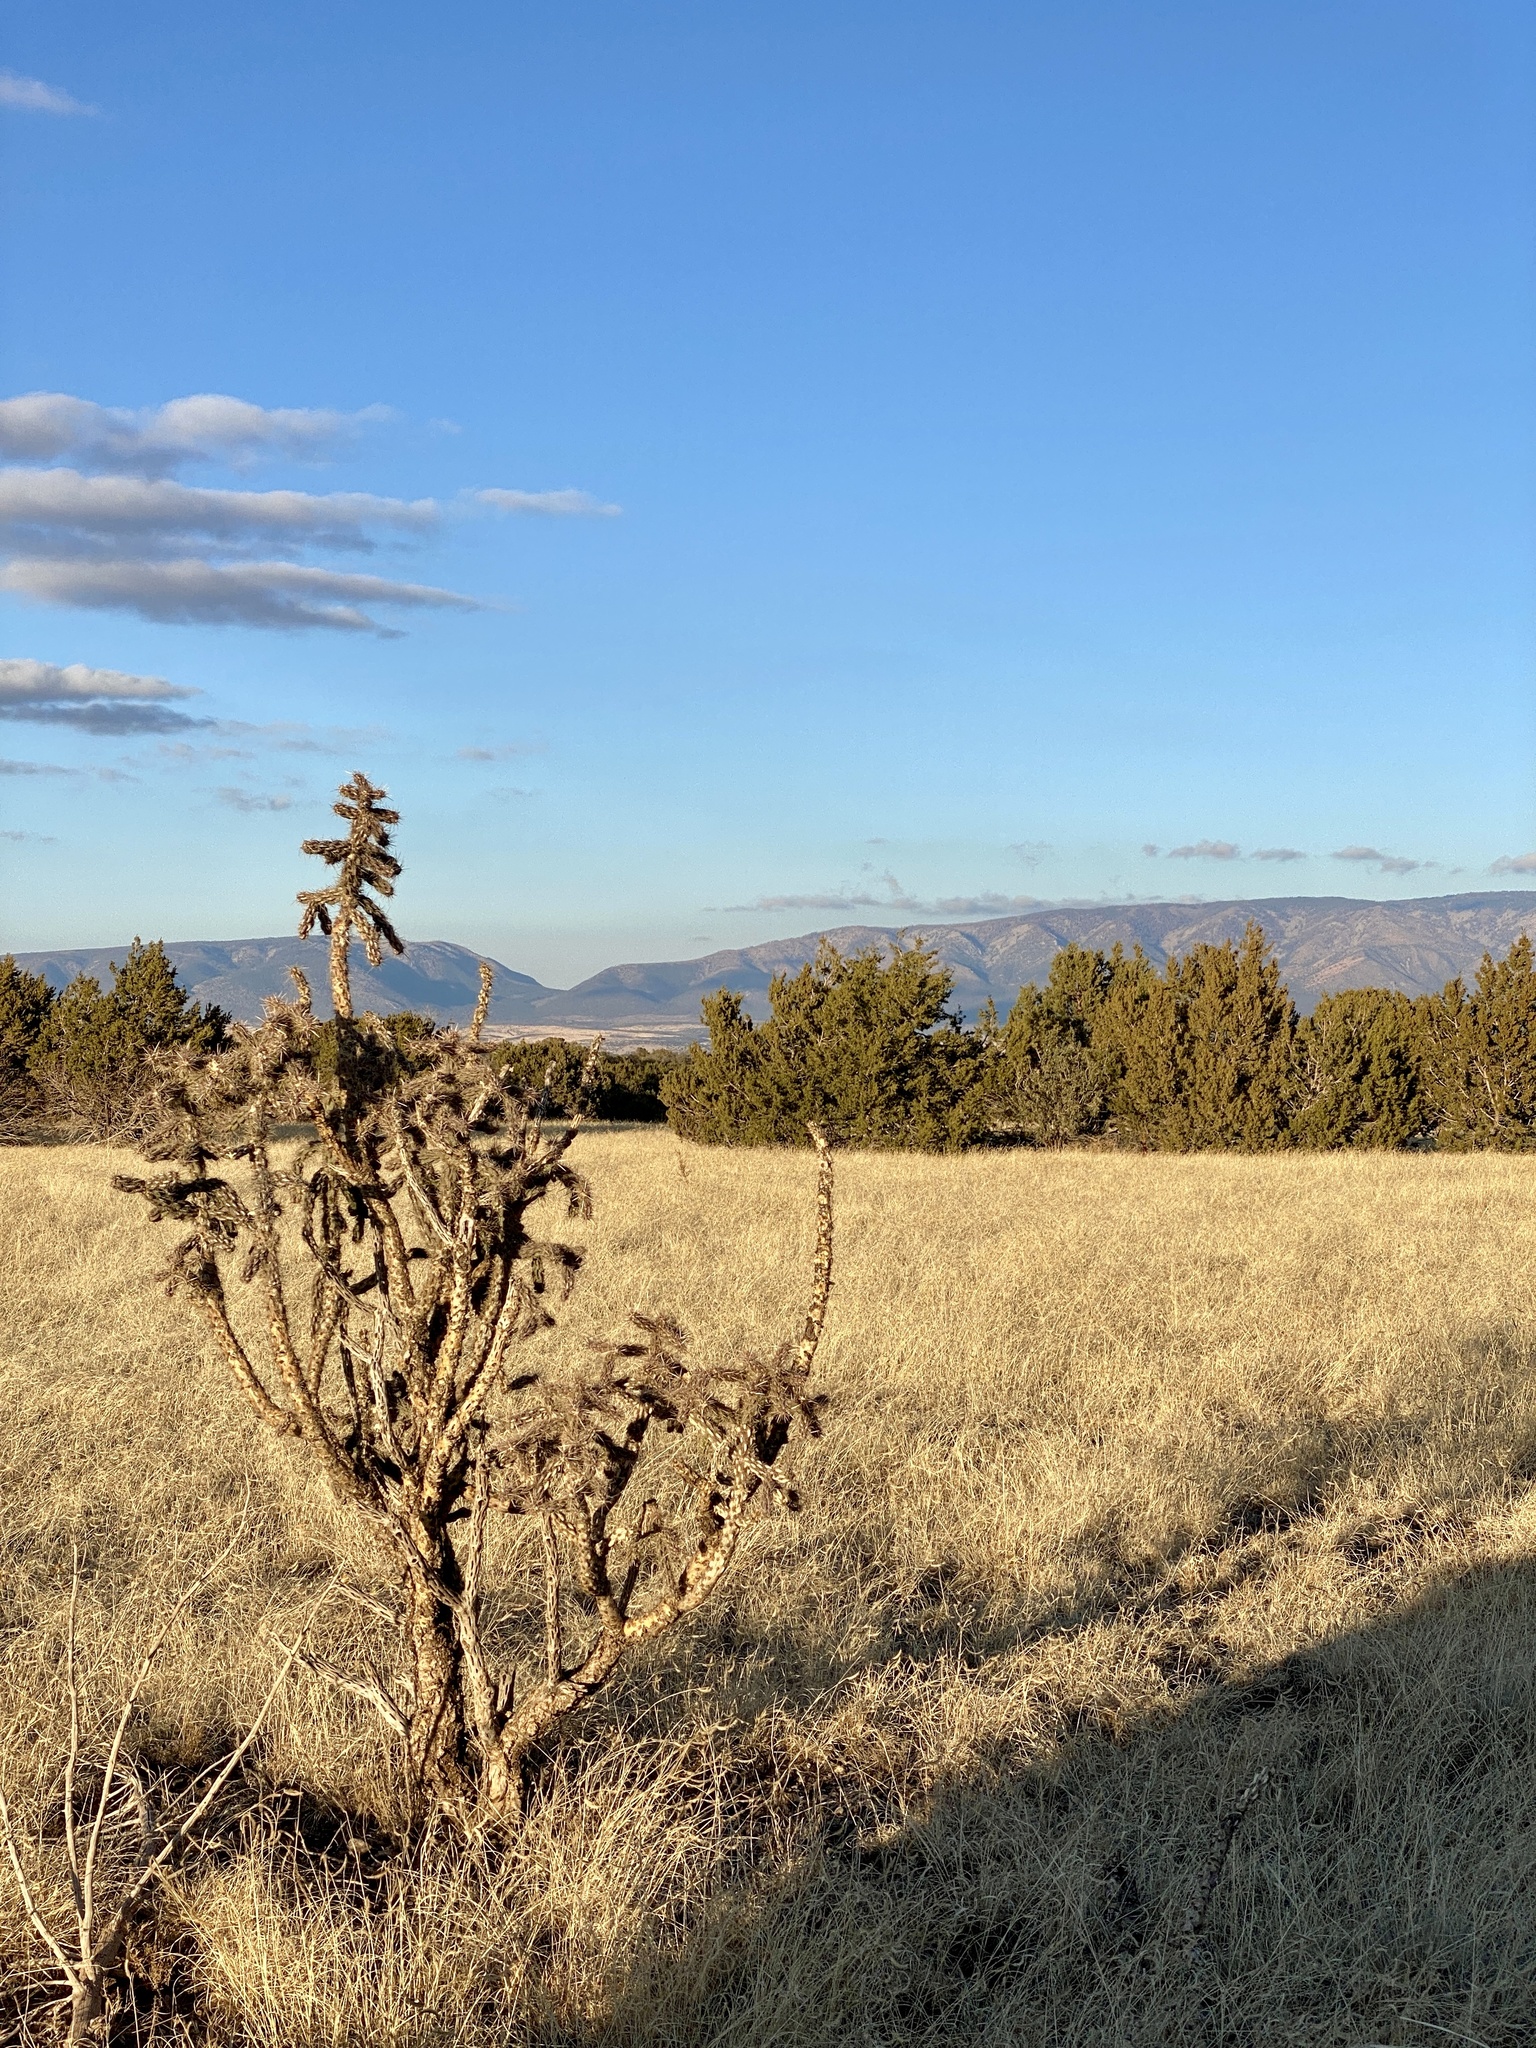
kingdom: Plantae
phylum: Tracheophyta
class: Magnoliopsida
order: Caryophyllales
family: Cactaceae
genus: Cylindropuntia
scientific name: Cylindropuntia imbricata
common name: Candelabrum cactus
